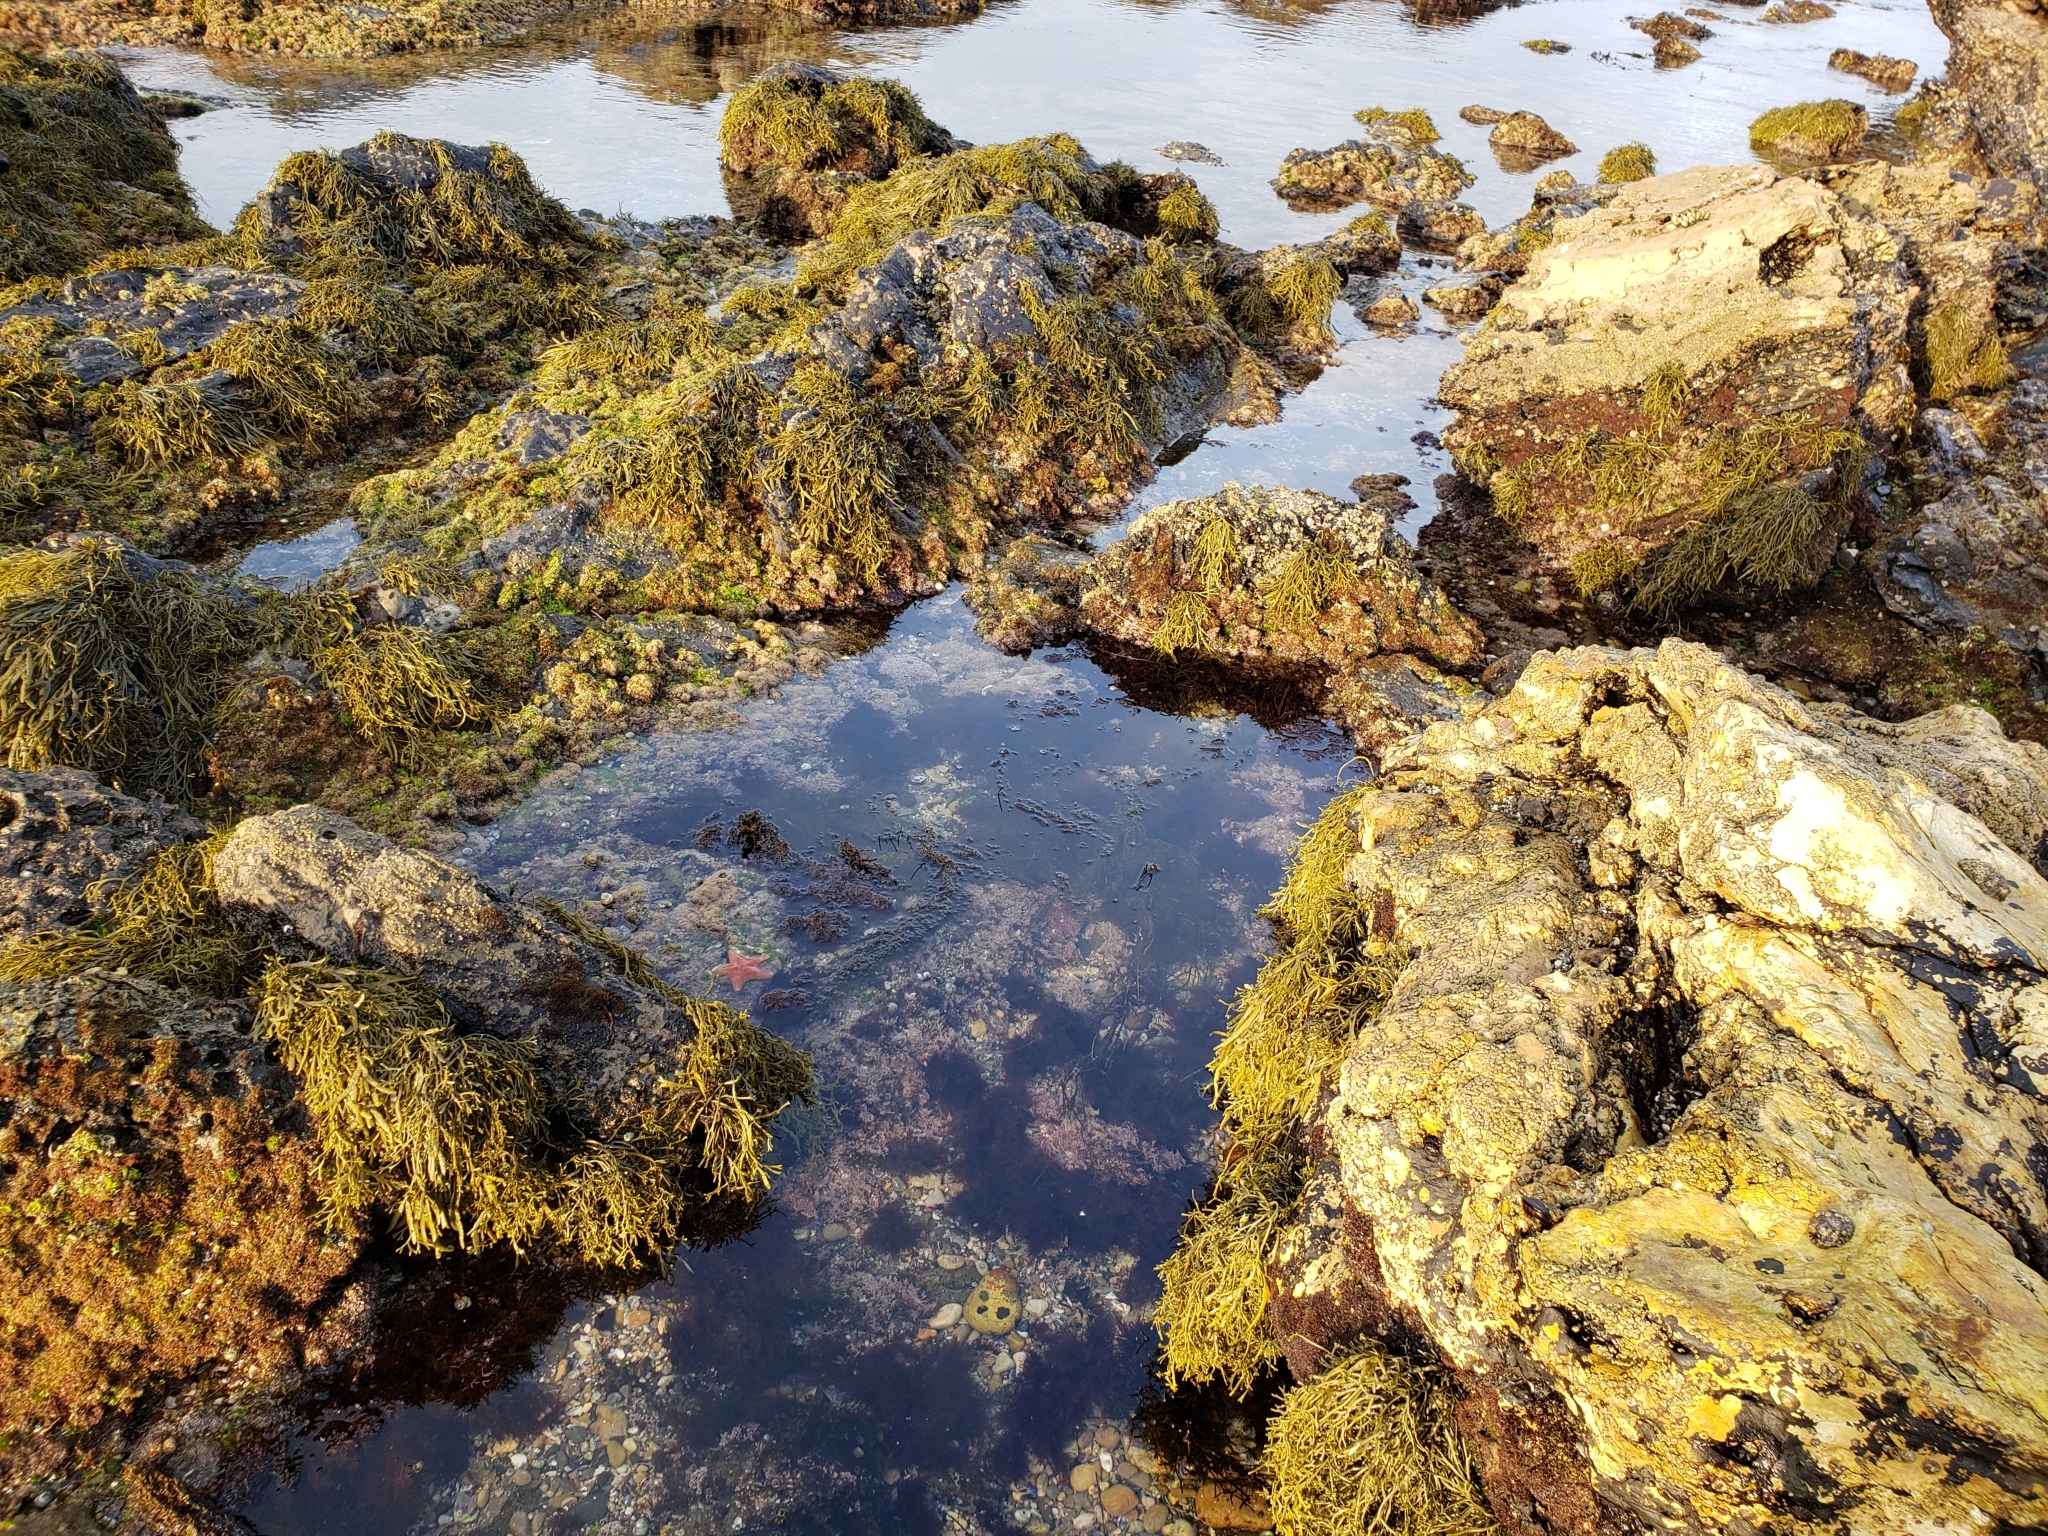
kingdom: Animalia
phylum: Echinodermata
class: Asteroidea
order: Valvatida
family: Asterinidae
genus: Patiria
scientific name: Patiria miniata
